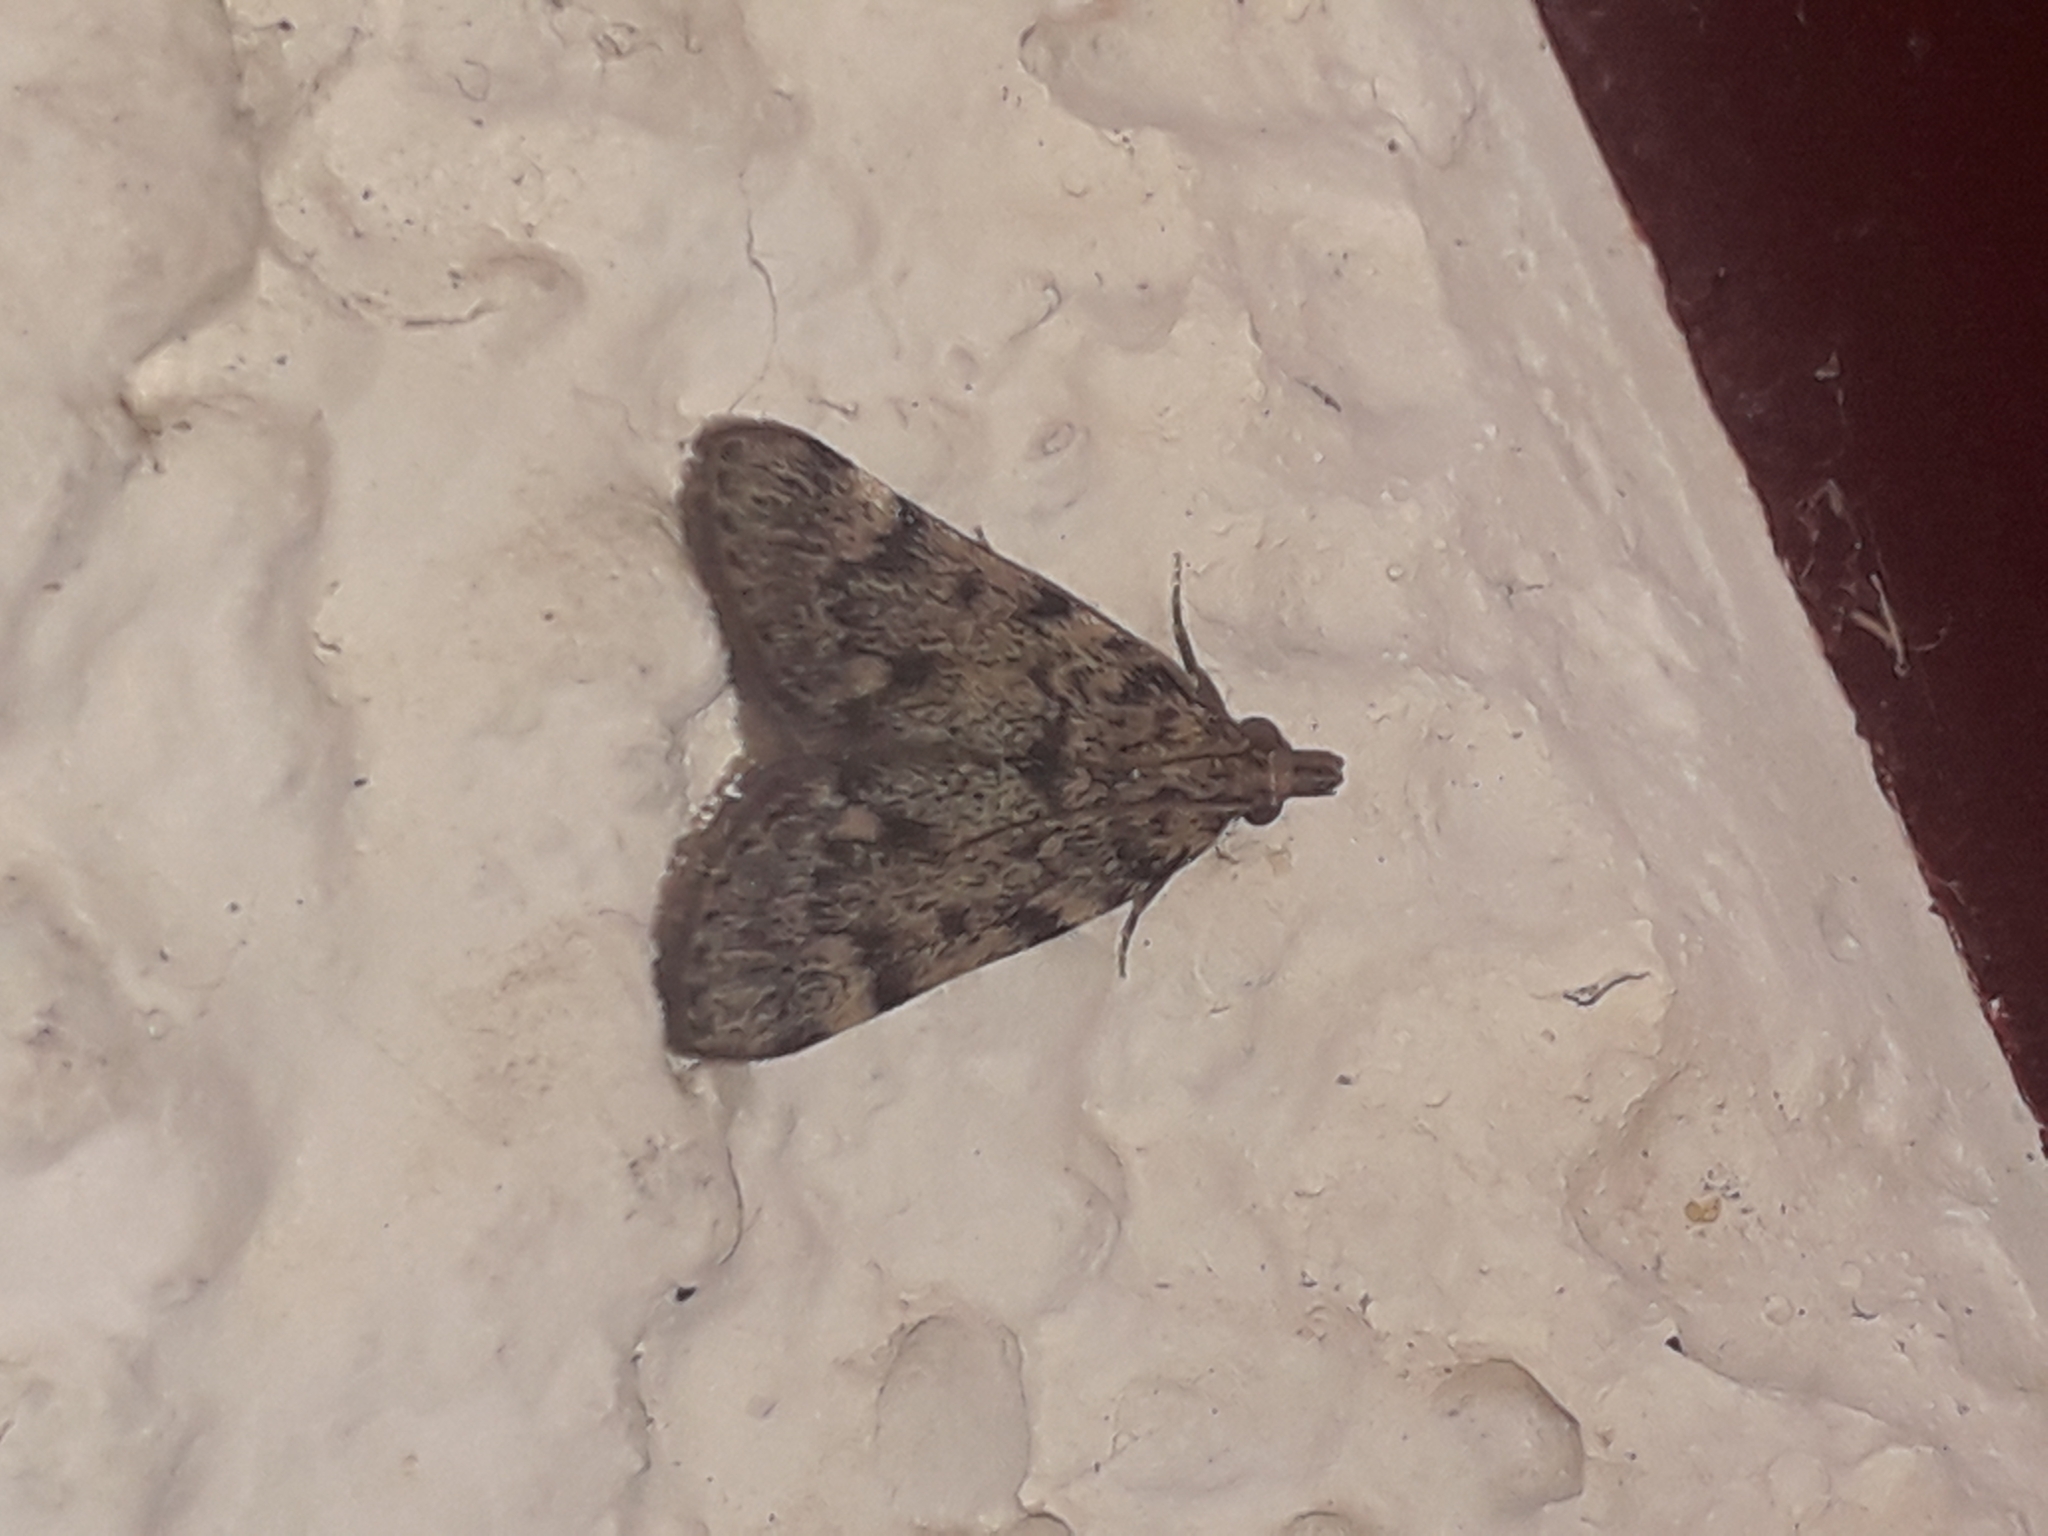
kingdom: Animalia
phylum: Arthropoda
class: Insecta
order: Lepidoptera
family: Pyralidae
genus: Aglossa
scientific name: Aglossa pinguinalis
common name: Large tabby
